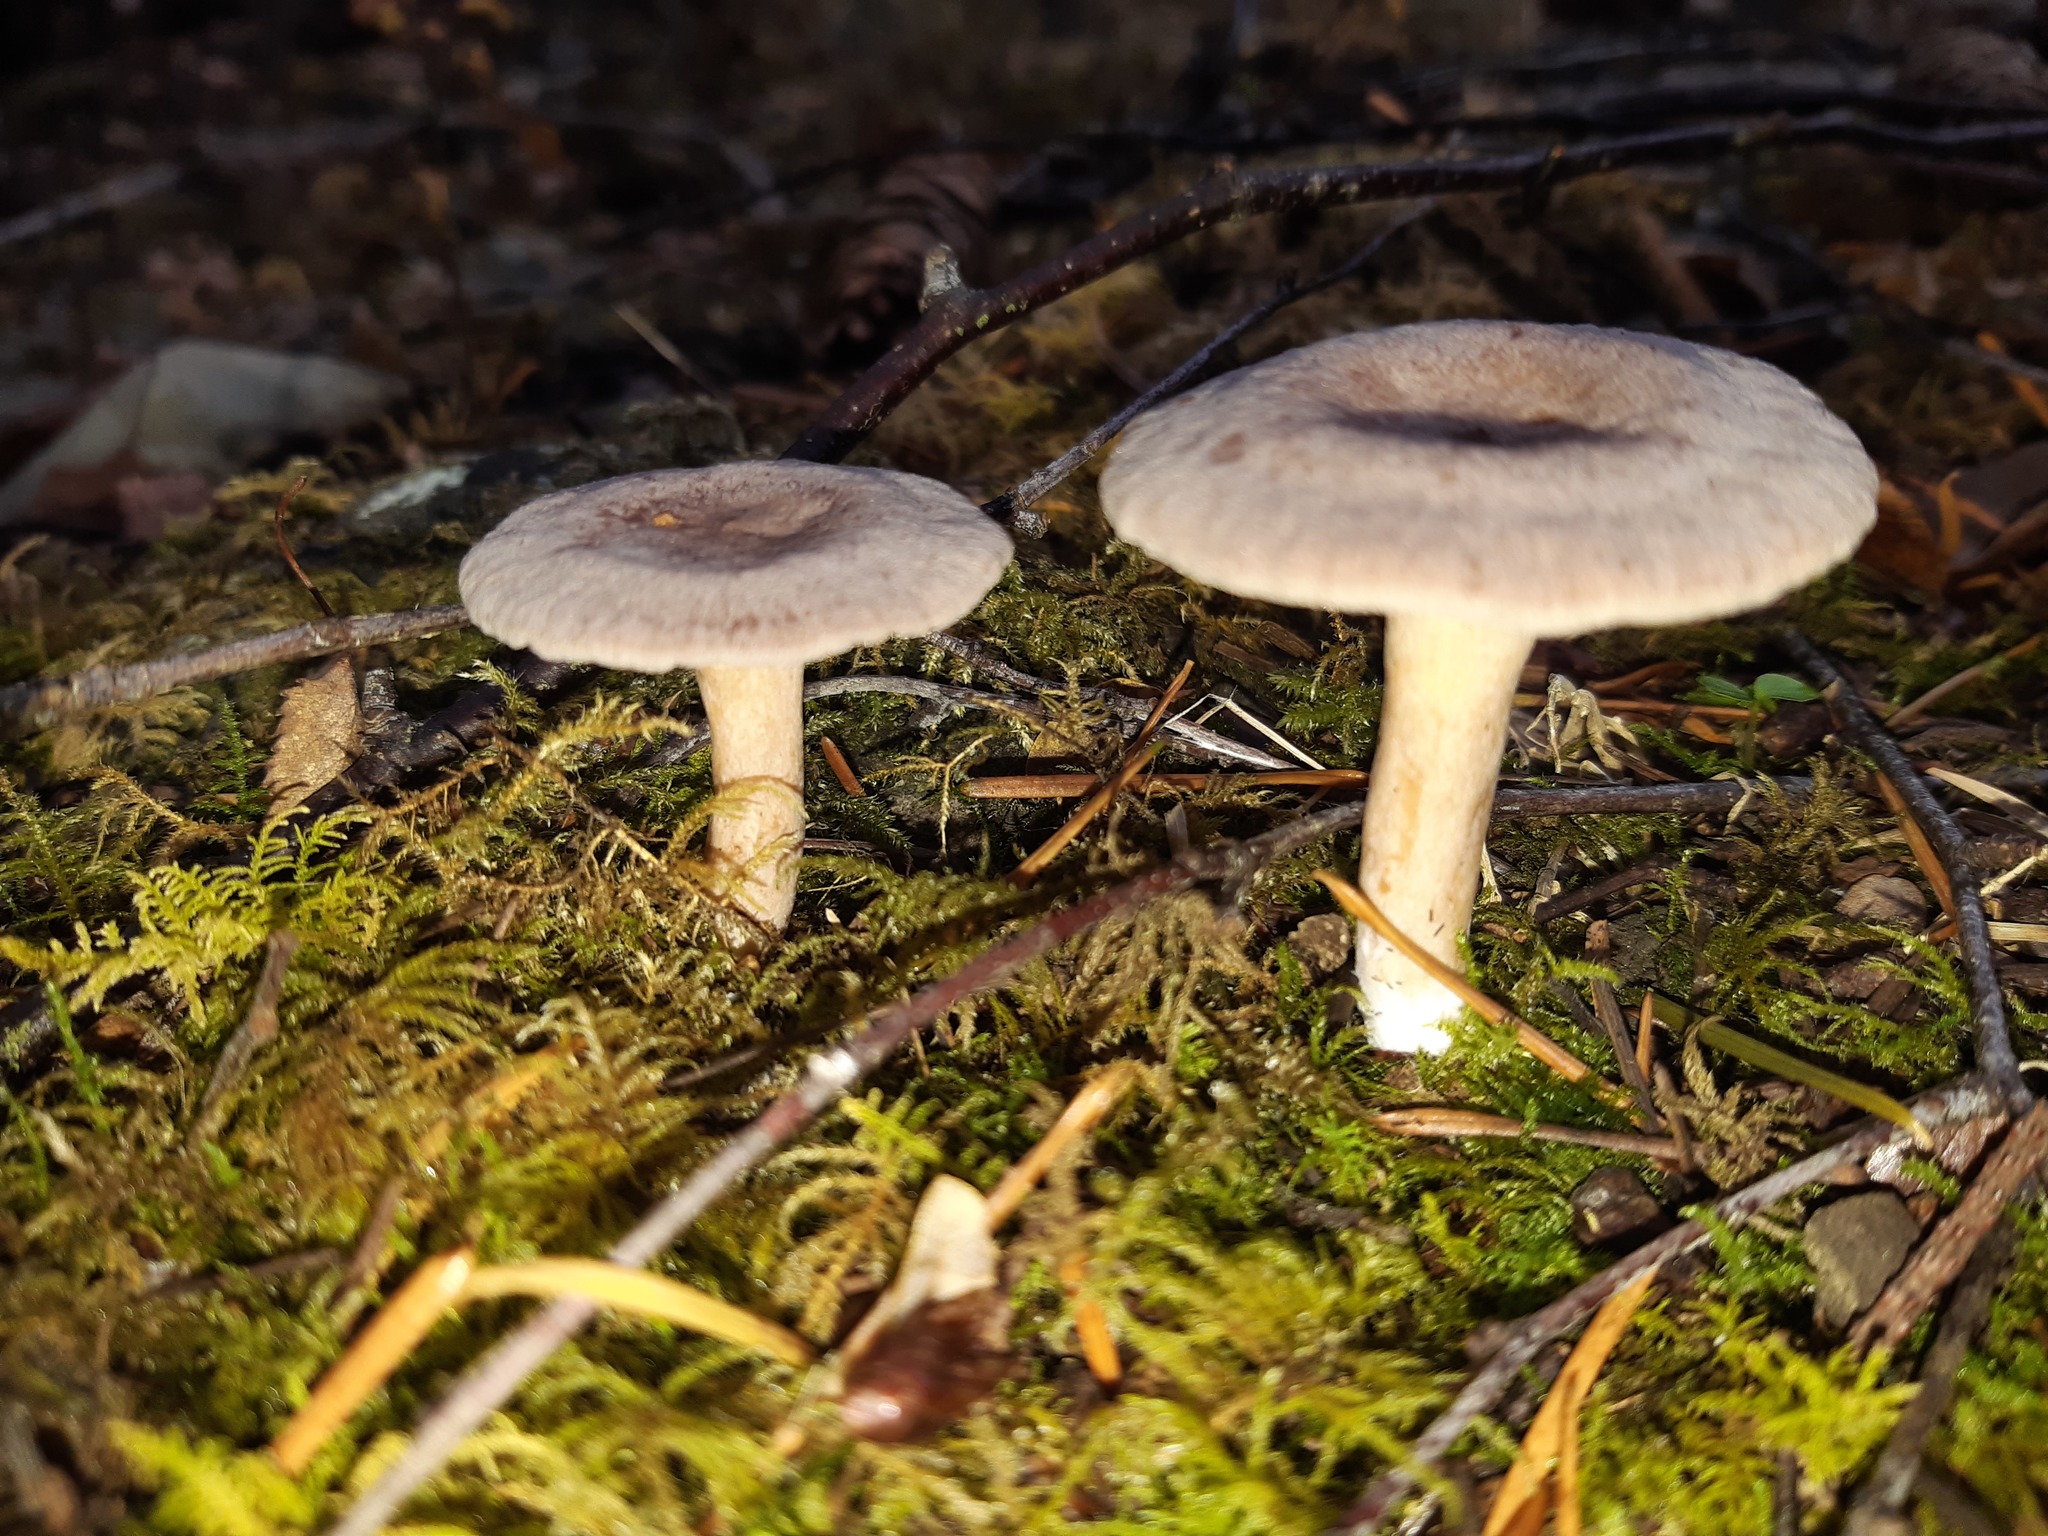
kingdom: Fungi
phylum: Basidiomycota
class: Agaricomycetes
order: Russulales
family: Russulaceae
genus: Lactarius
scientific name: Lactarius glyciosmus
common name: Coconut milkcap
